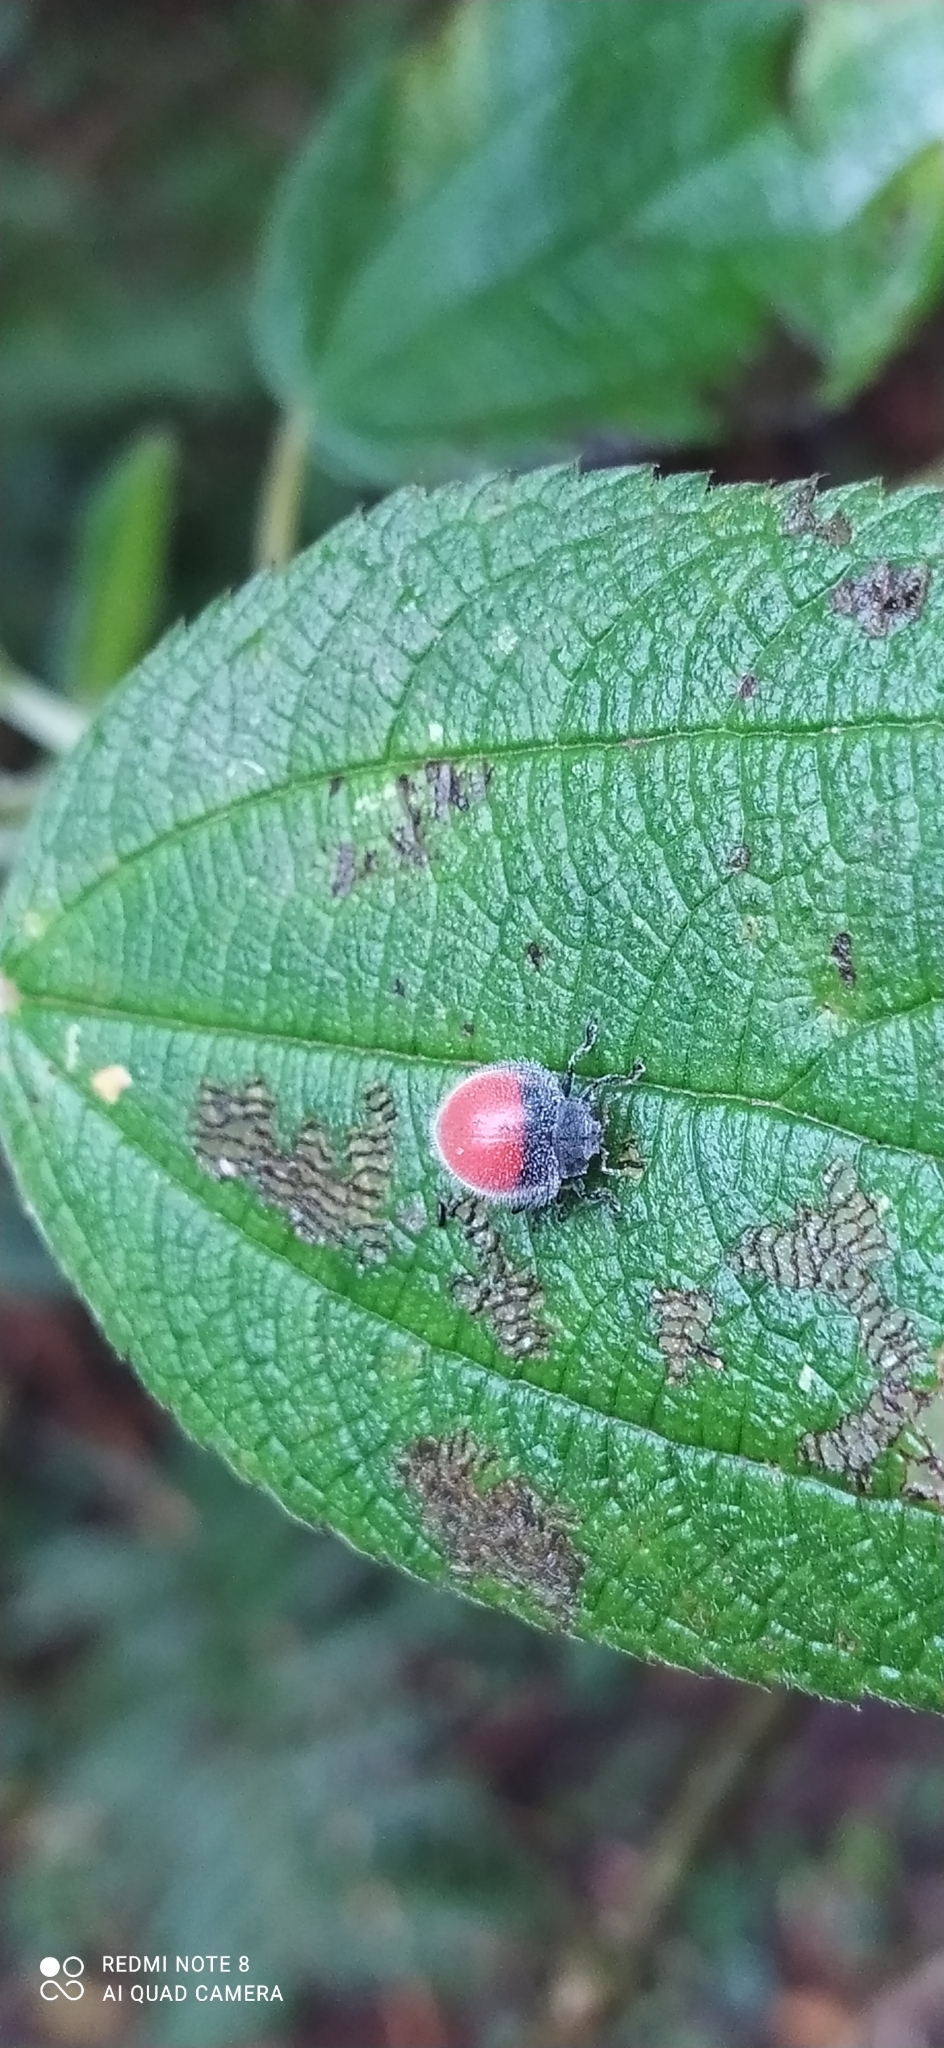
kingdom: Animalia
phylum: Arthropoda
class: Insecta
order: Coleoptera
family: Coccinellidae
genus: Toxotoma
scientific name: Toxotoma
